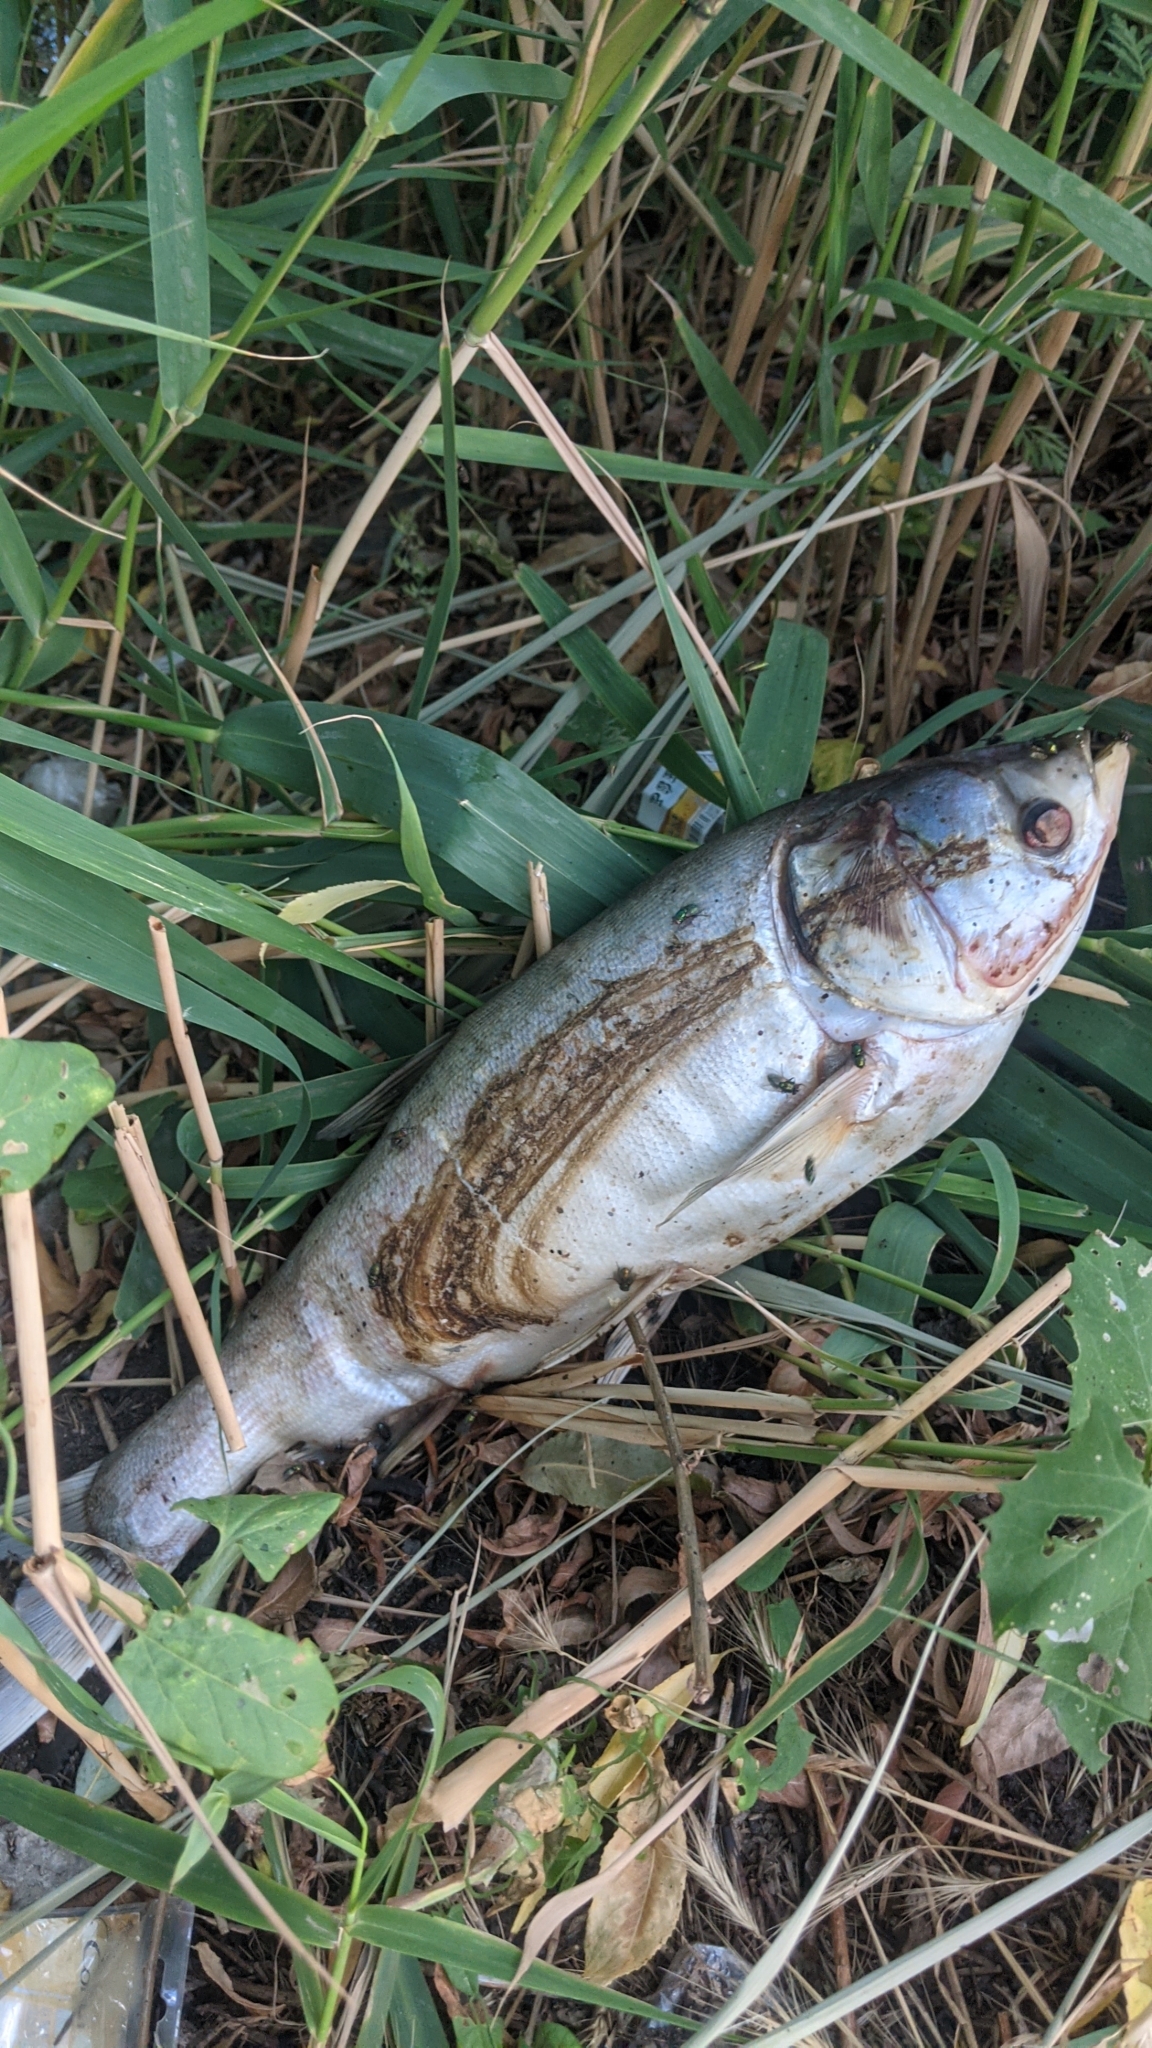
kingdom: Animalia
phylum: Chordata
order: Cypriniformes
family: Cyprinidae
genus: Hypophthalmichthys
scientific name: Hypophthalmichthys molitrix
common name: Silver carp
